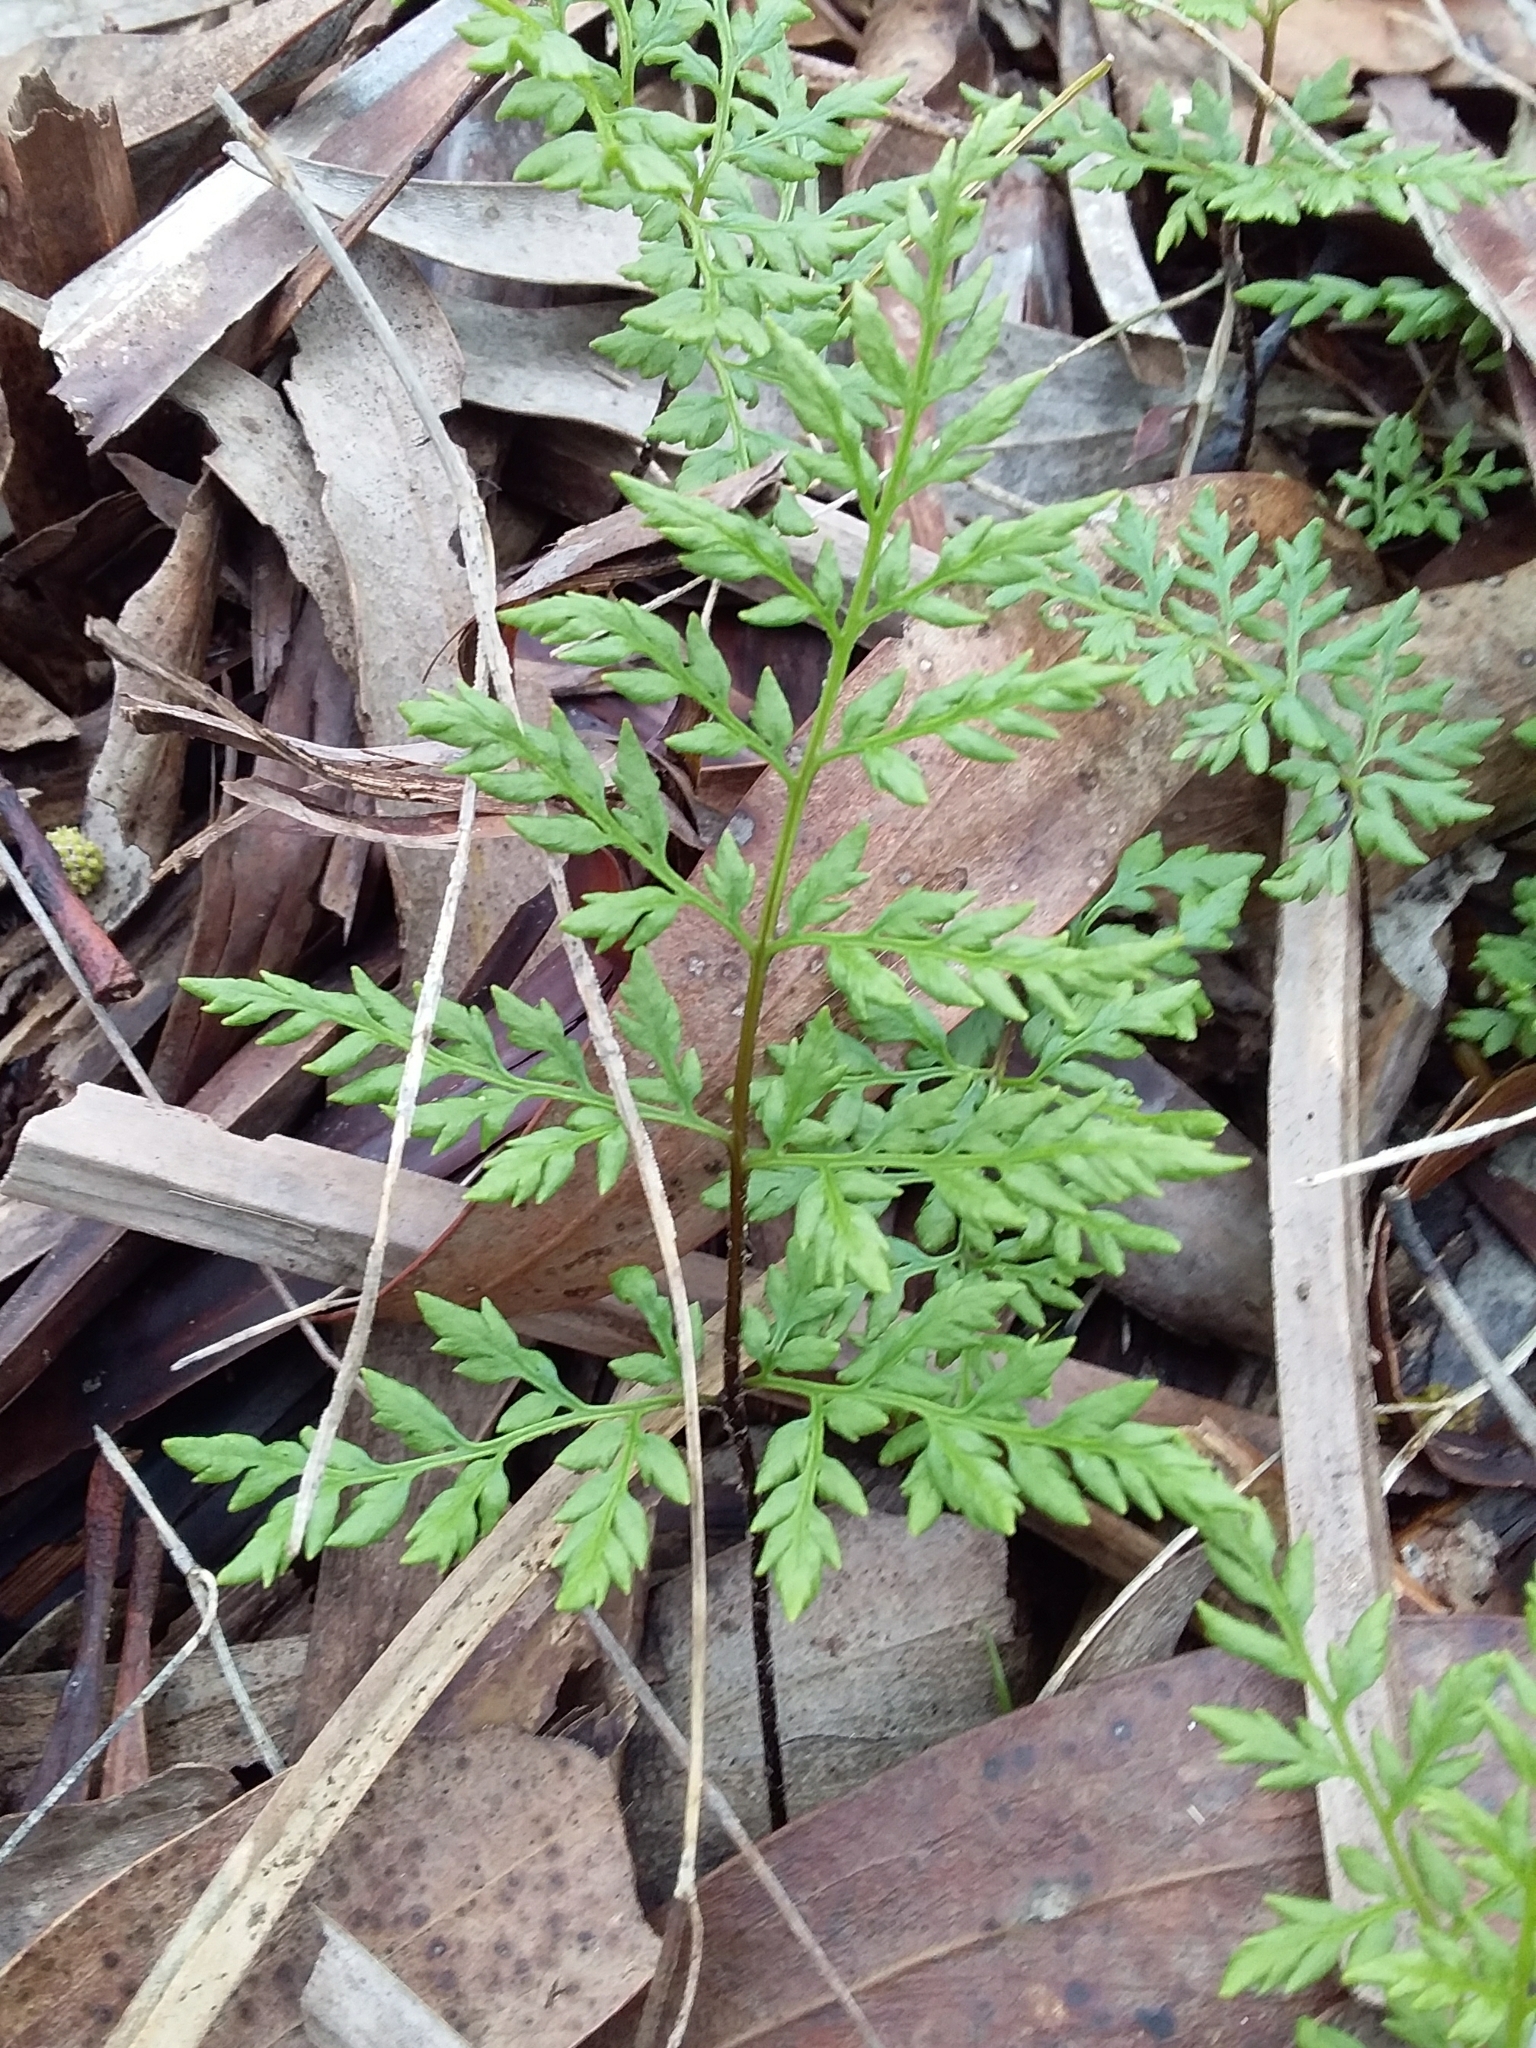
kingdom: Plantae
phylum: Tracheophyta
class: Polypodiopsida
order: Polypodiales
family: Pteridaceae
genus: Cheilanthes
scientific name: Cheilanthes austrotenuifolia
